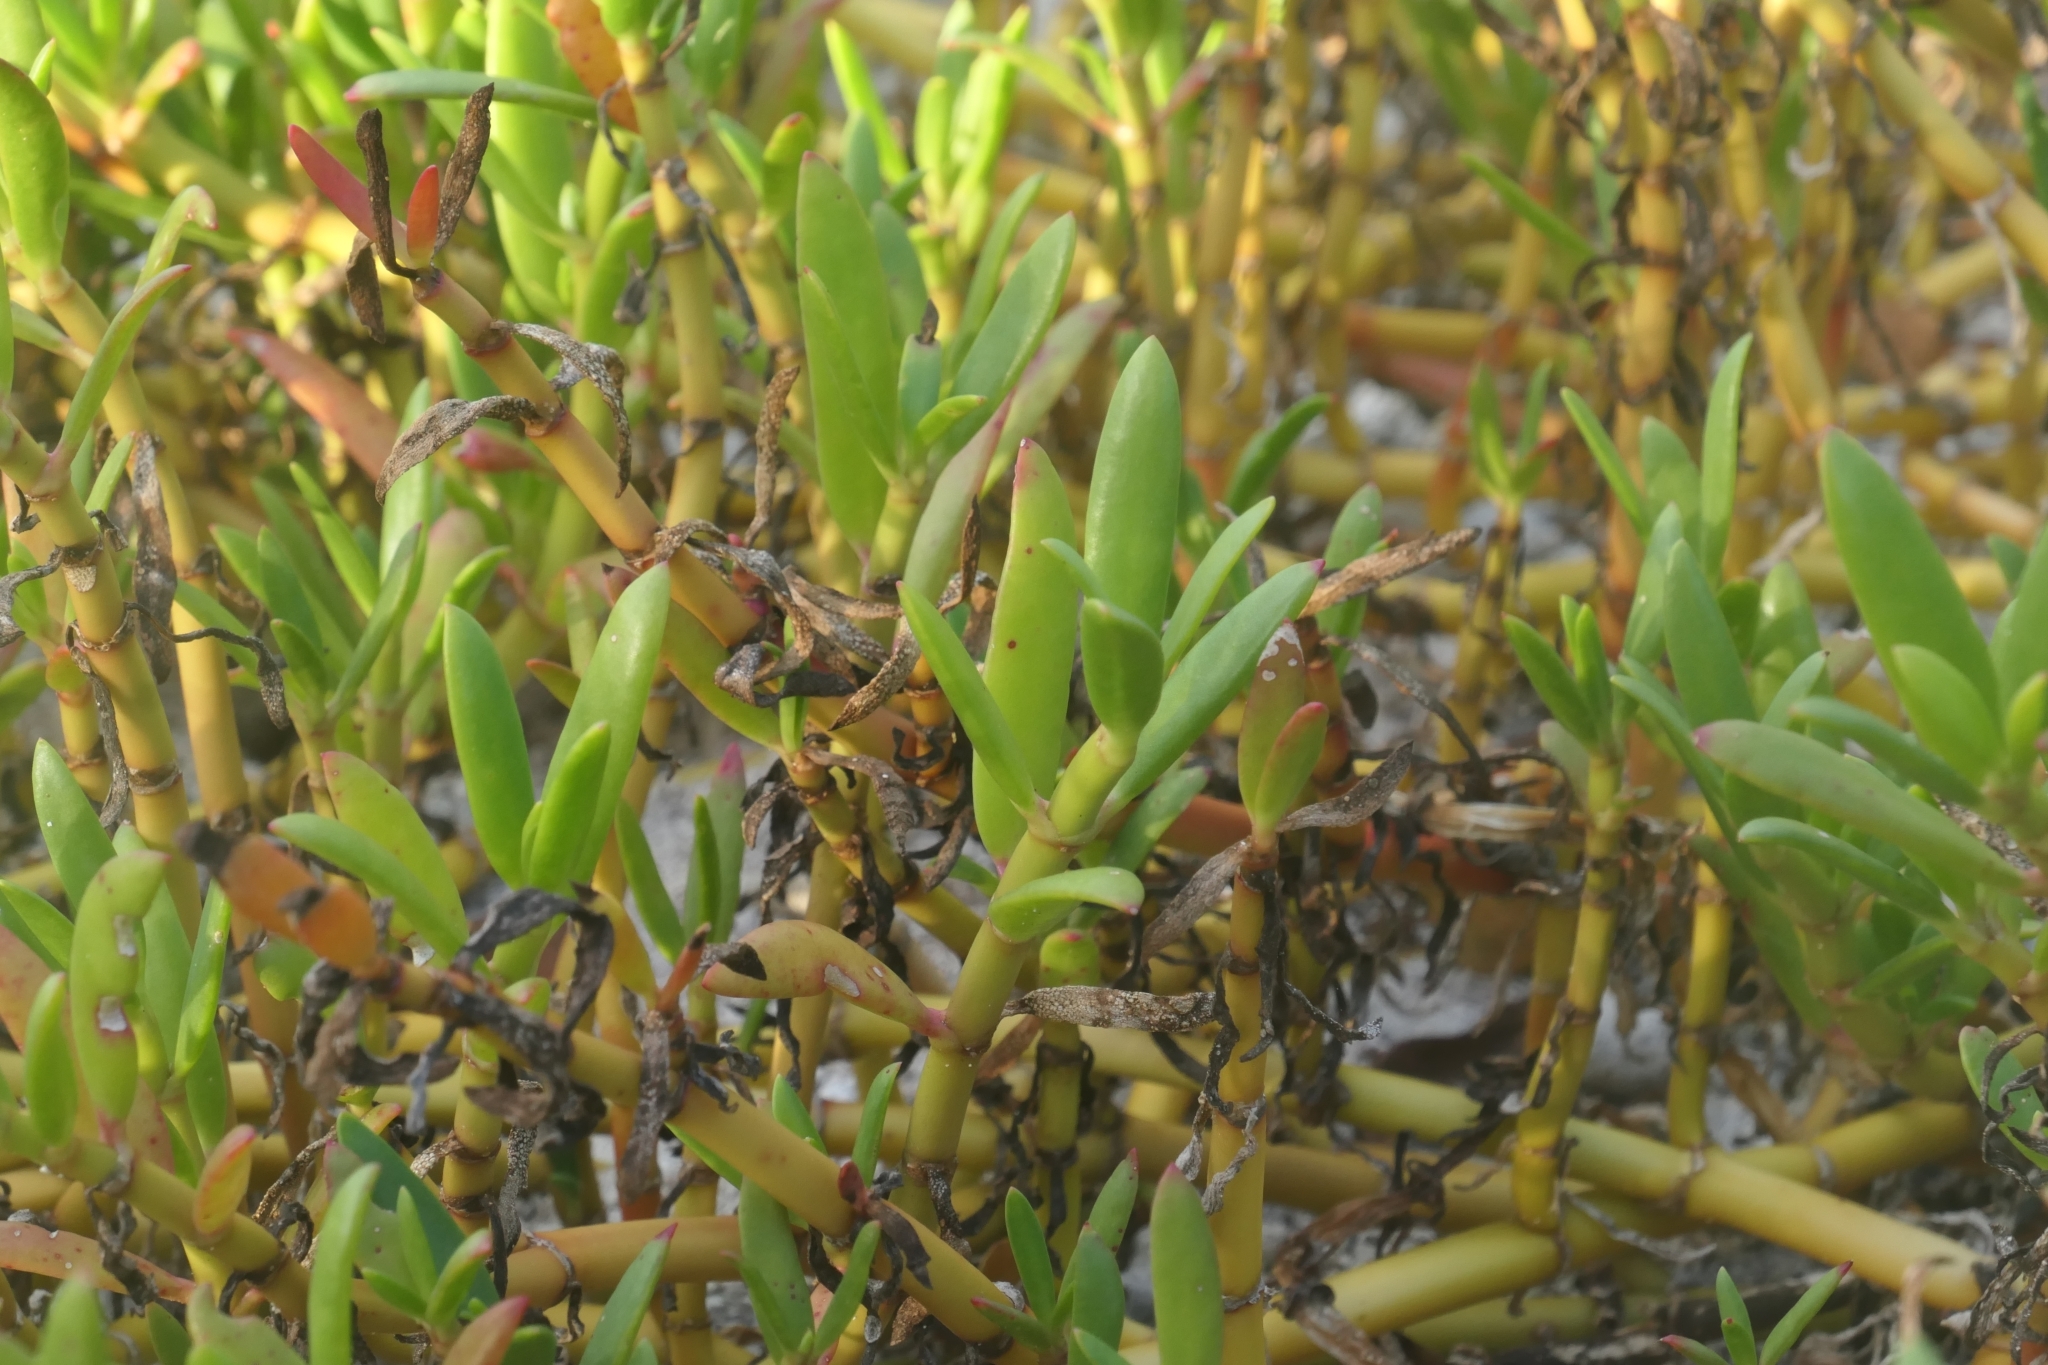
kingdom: Plantae
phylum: Tracheophyta
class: Magnoliopsida
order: Caryophyllales
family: Aizoaceae
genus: Sesuvium
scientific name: Sesuvium portulacastrum
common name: Sea-purslane
